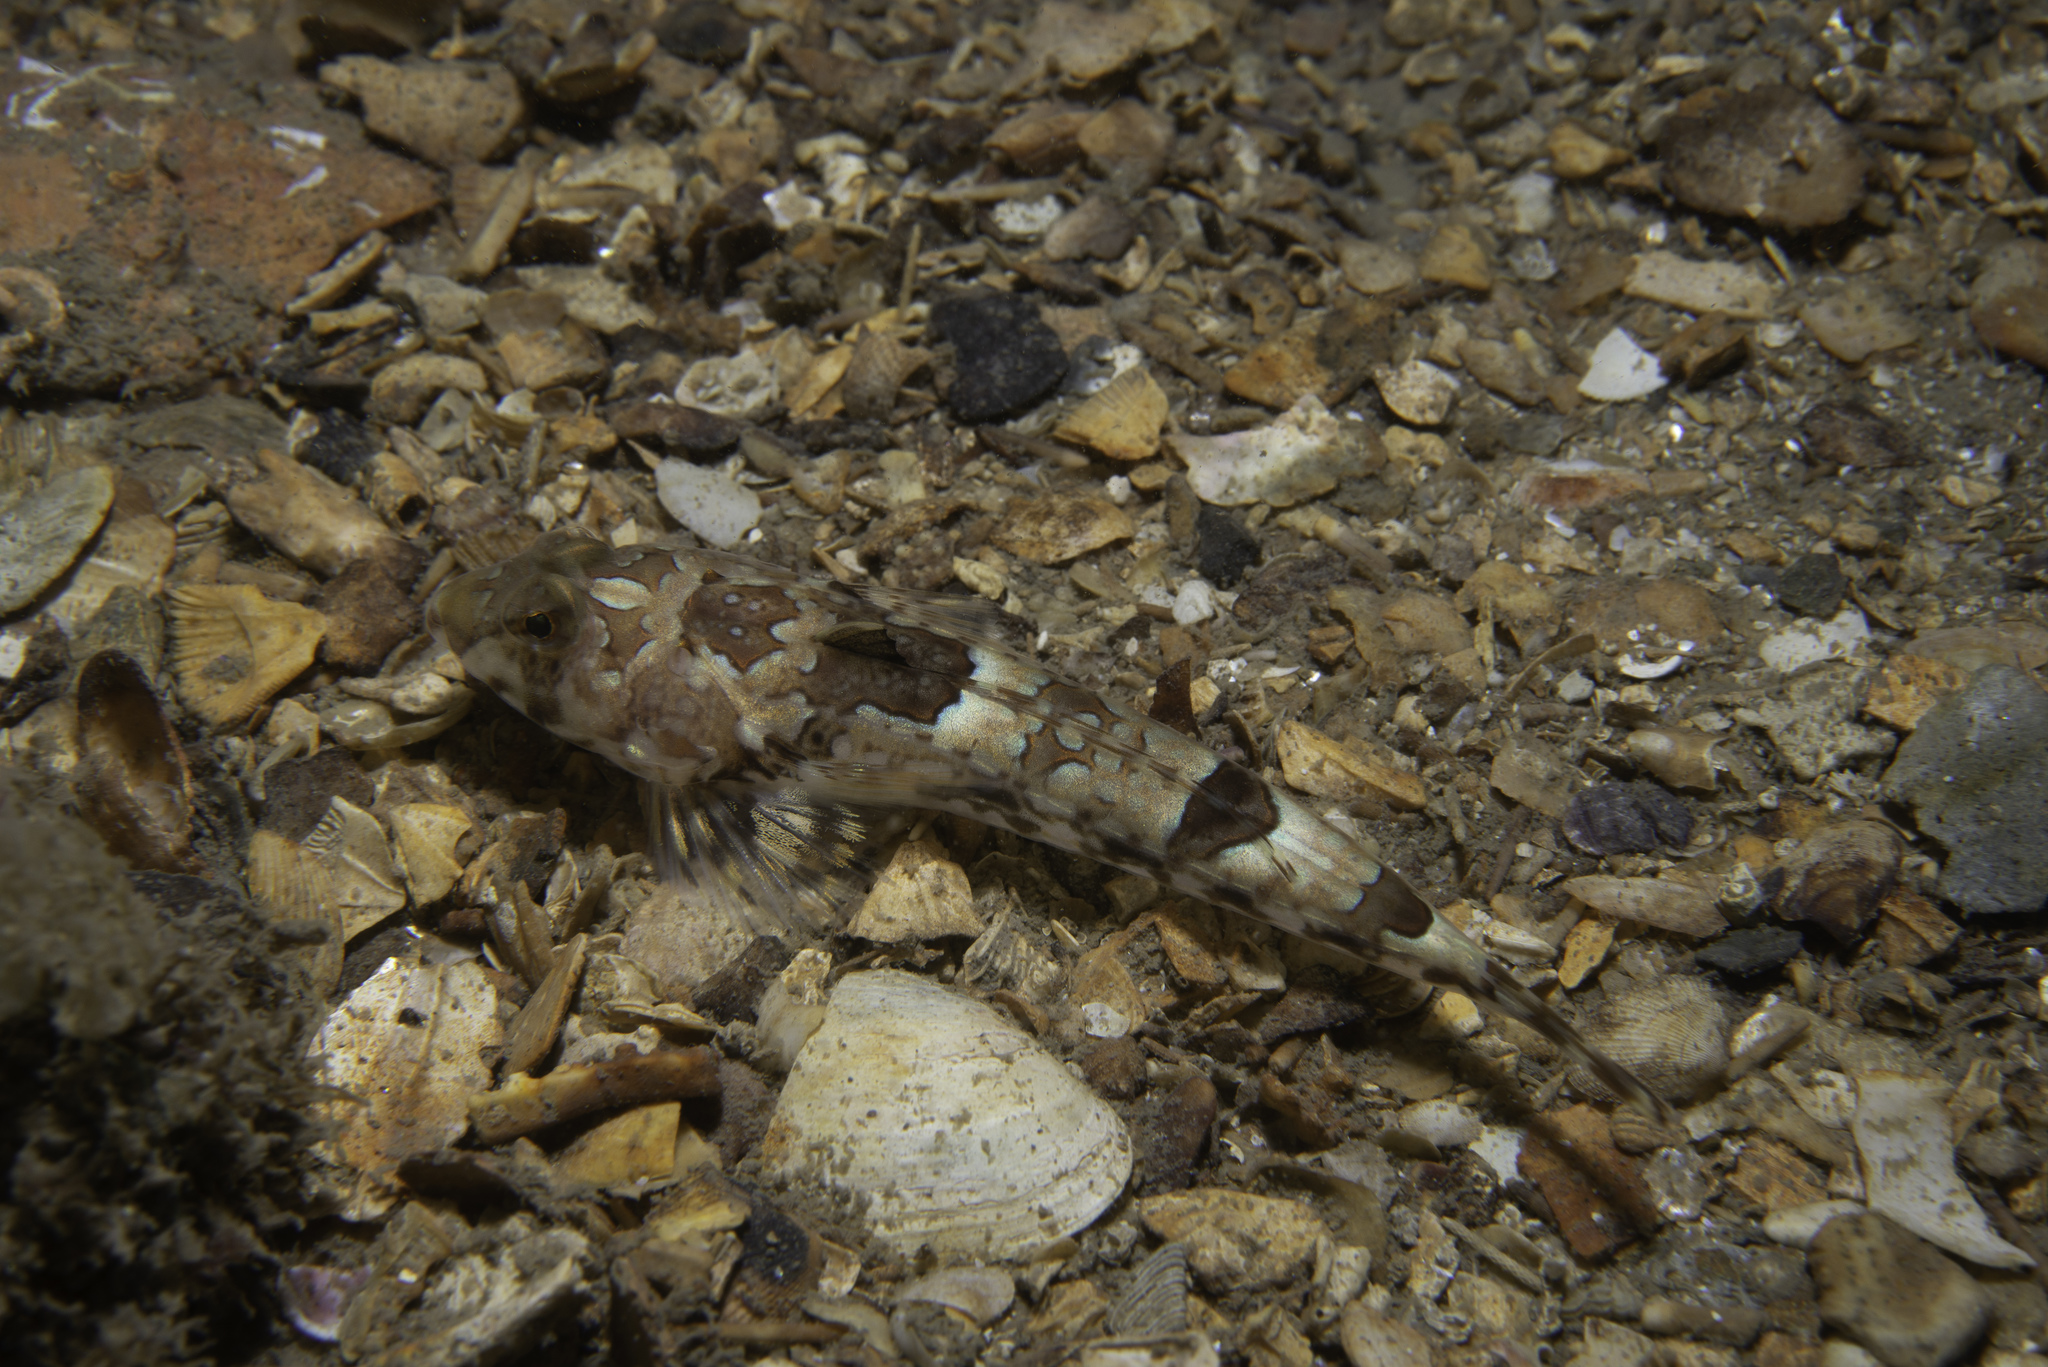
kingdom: Animalia
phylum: Chordata
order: Perciformes
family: Callionymidae
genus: Callionymus
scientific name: Callionymus reticulatus
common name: Reticulated dragonet
